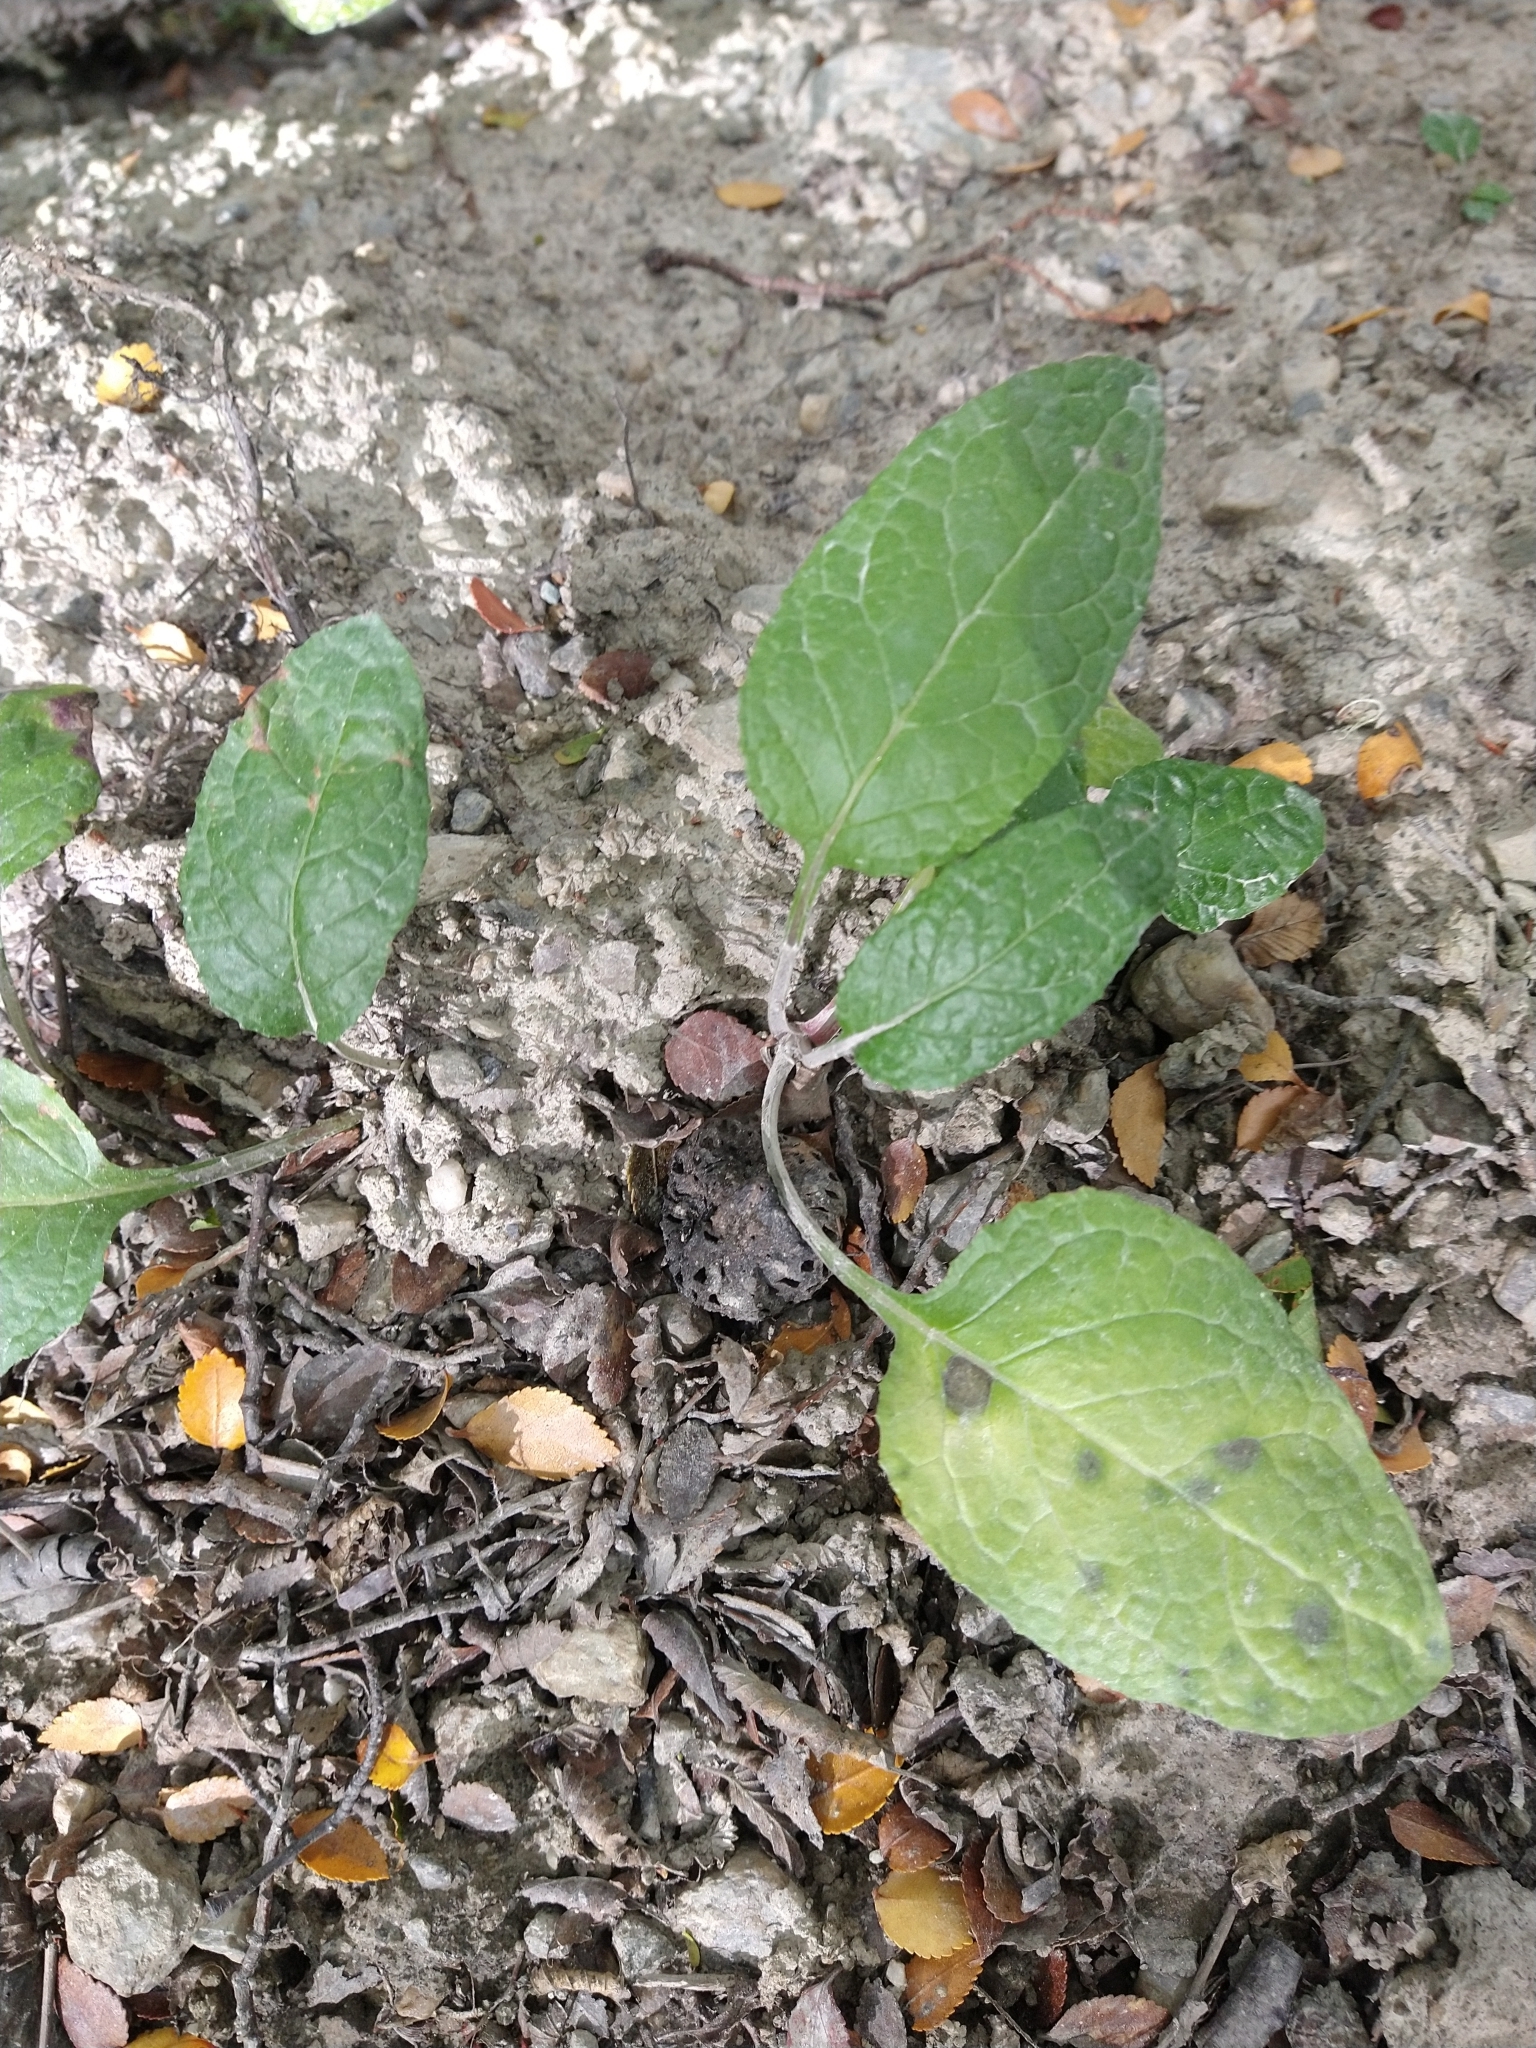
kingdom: Plantae
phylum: Tracheophyta
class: Magnoliopsida
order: Asterales
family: Asteraceae
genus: Adenocaulon
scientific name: Adenocaulon chilense
